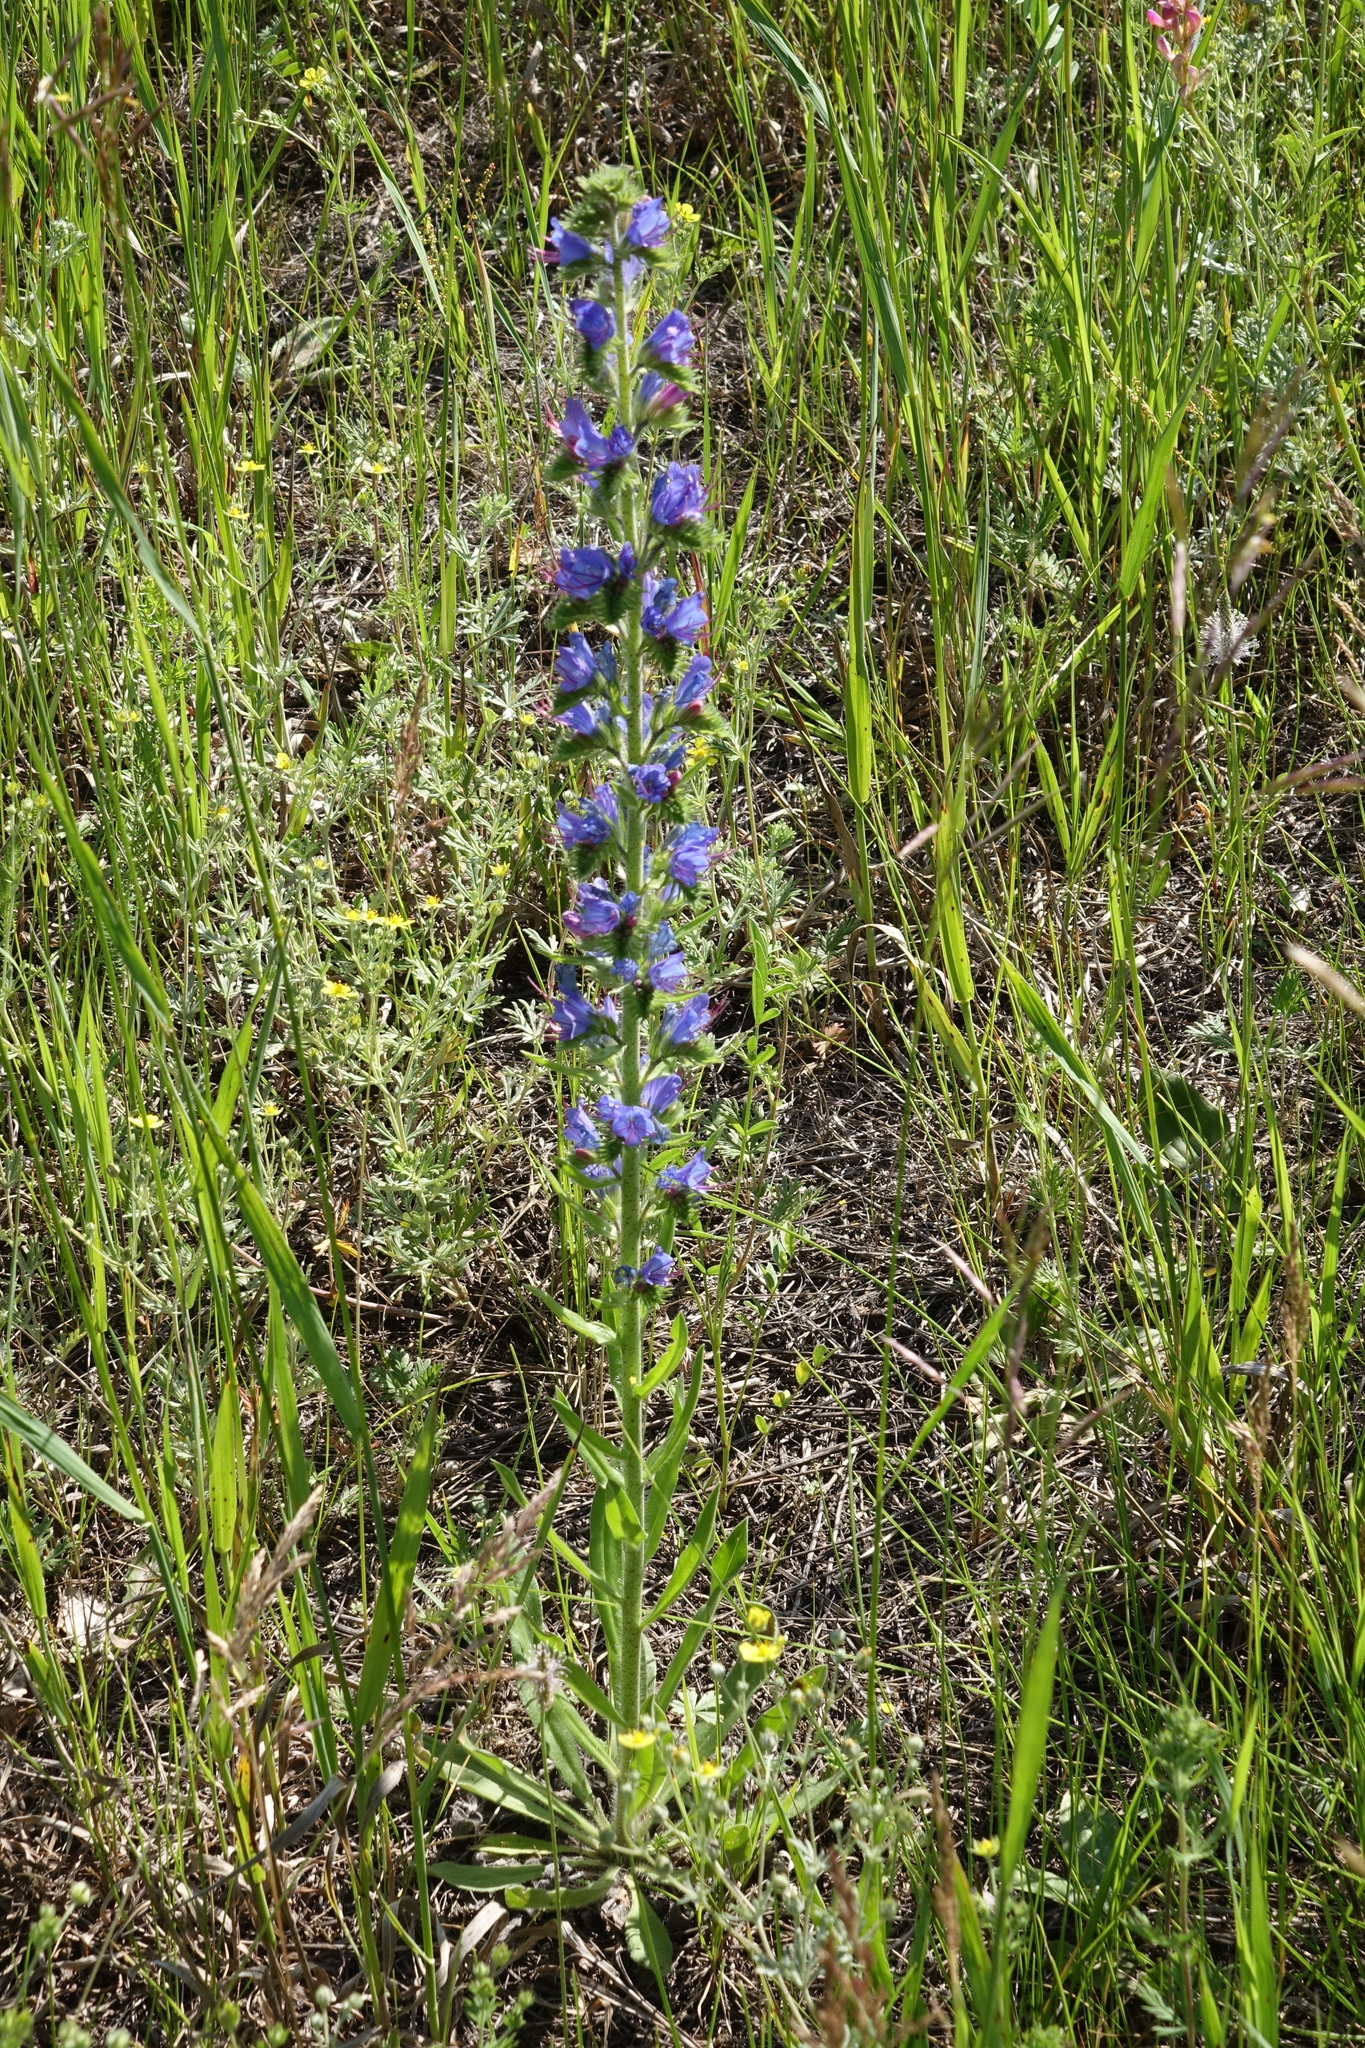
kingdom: Plantae
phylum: Tracheophyta
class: Magnoliopsida
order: Boraginales
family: Boraginaceae
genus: Echium
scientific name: Echium vulgare
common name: Common viper's bugloss
